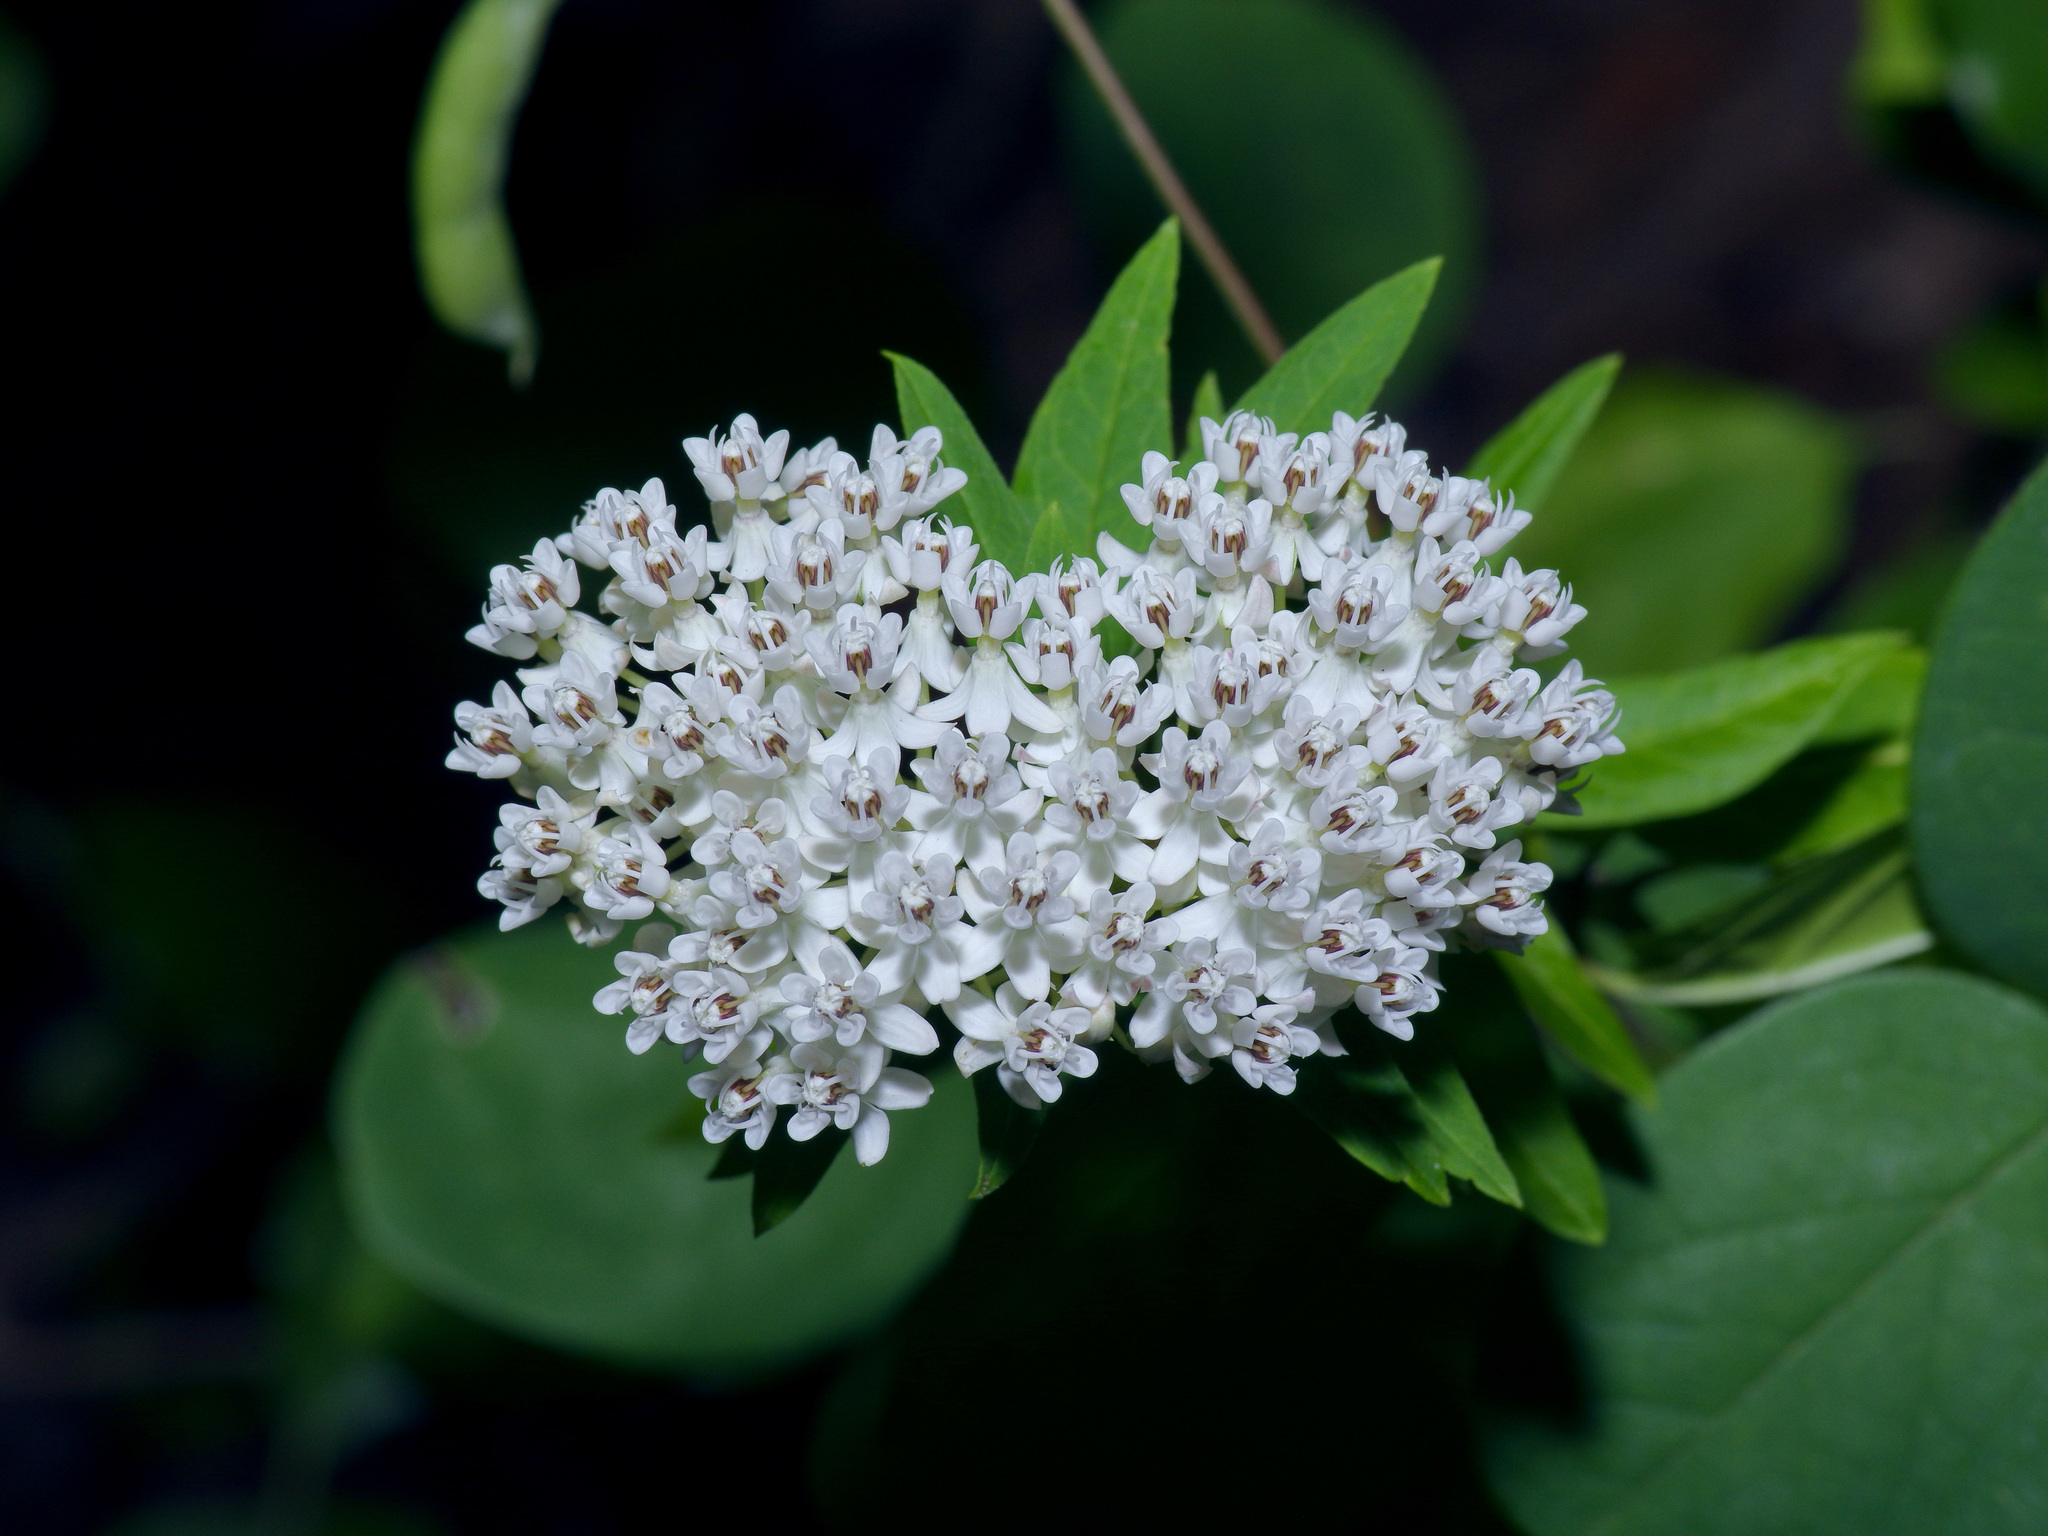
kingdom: Plantae
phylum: Tracheophyta
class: Magnoliopsida
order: Gentianales
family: Apocynaceae
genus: Asclepias
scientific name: Asclepias texana
